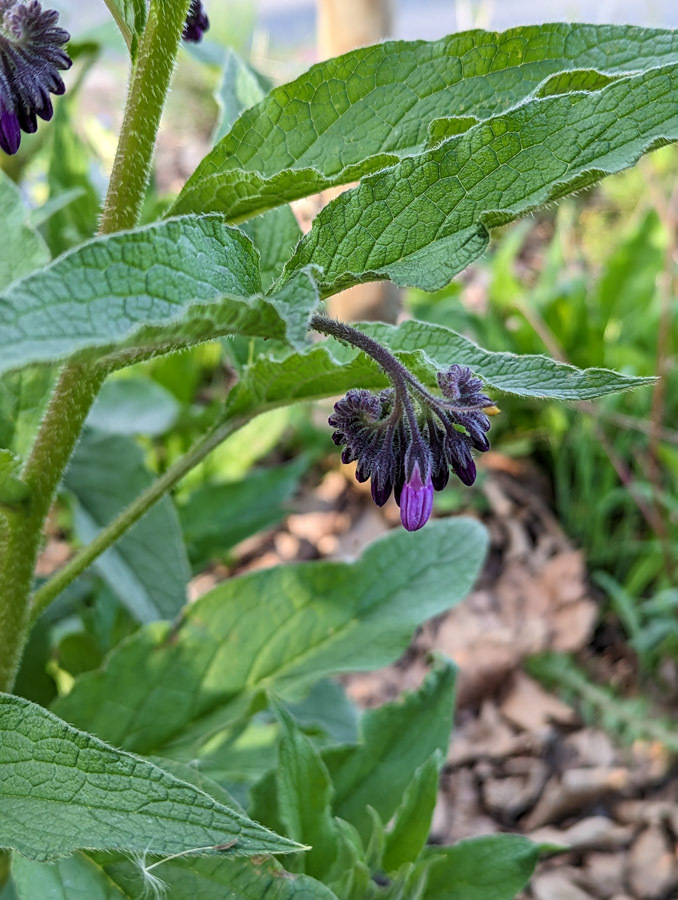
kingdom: Plantae
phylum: Tracheophyta
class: Magnoliopsida
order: Boraginales
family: Boraginaceae
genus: Symphytum
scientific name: Symphytum uplandicum
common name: Russian comfrey
